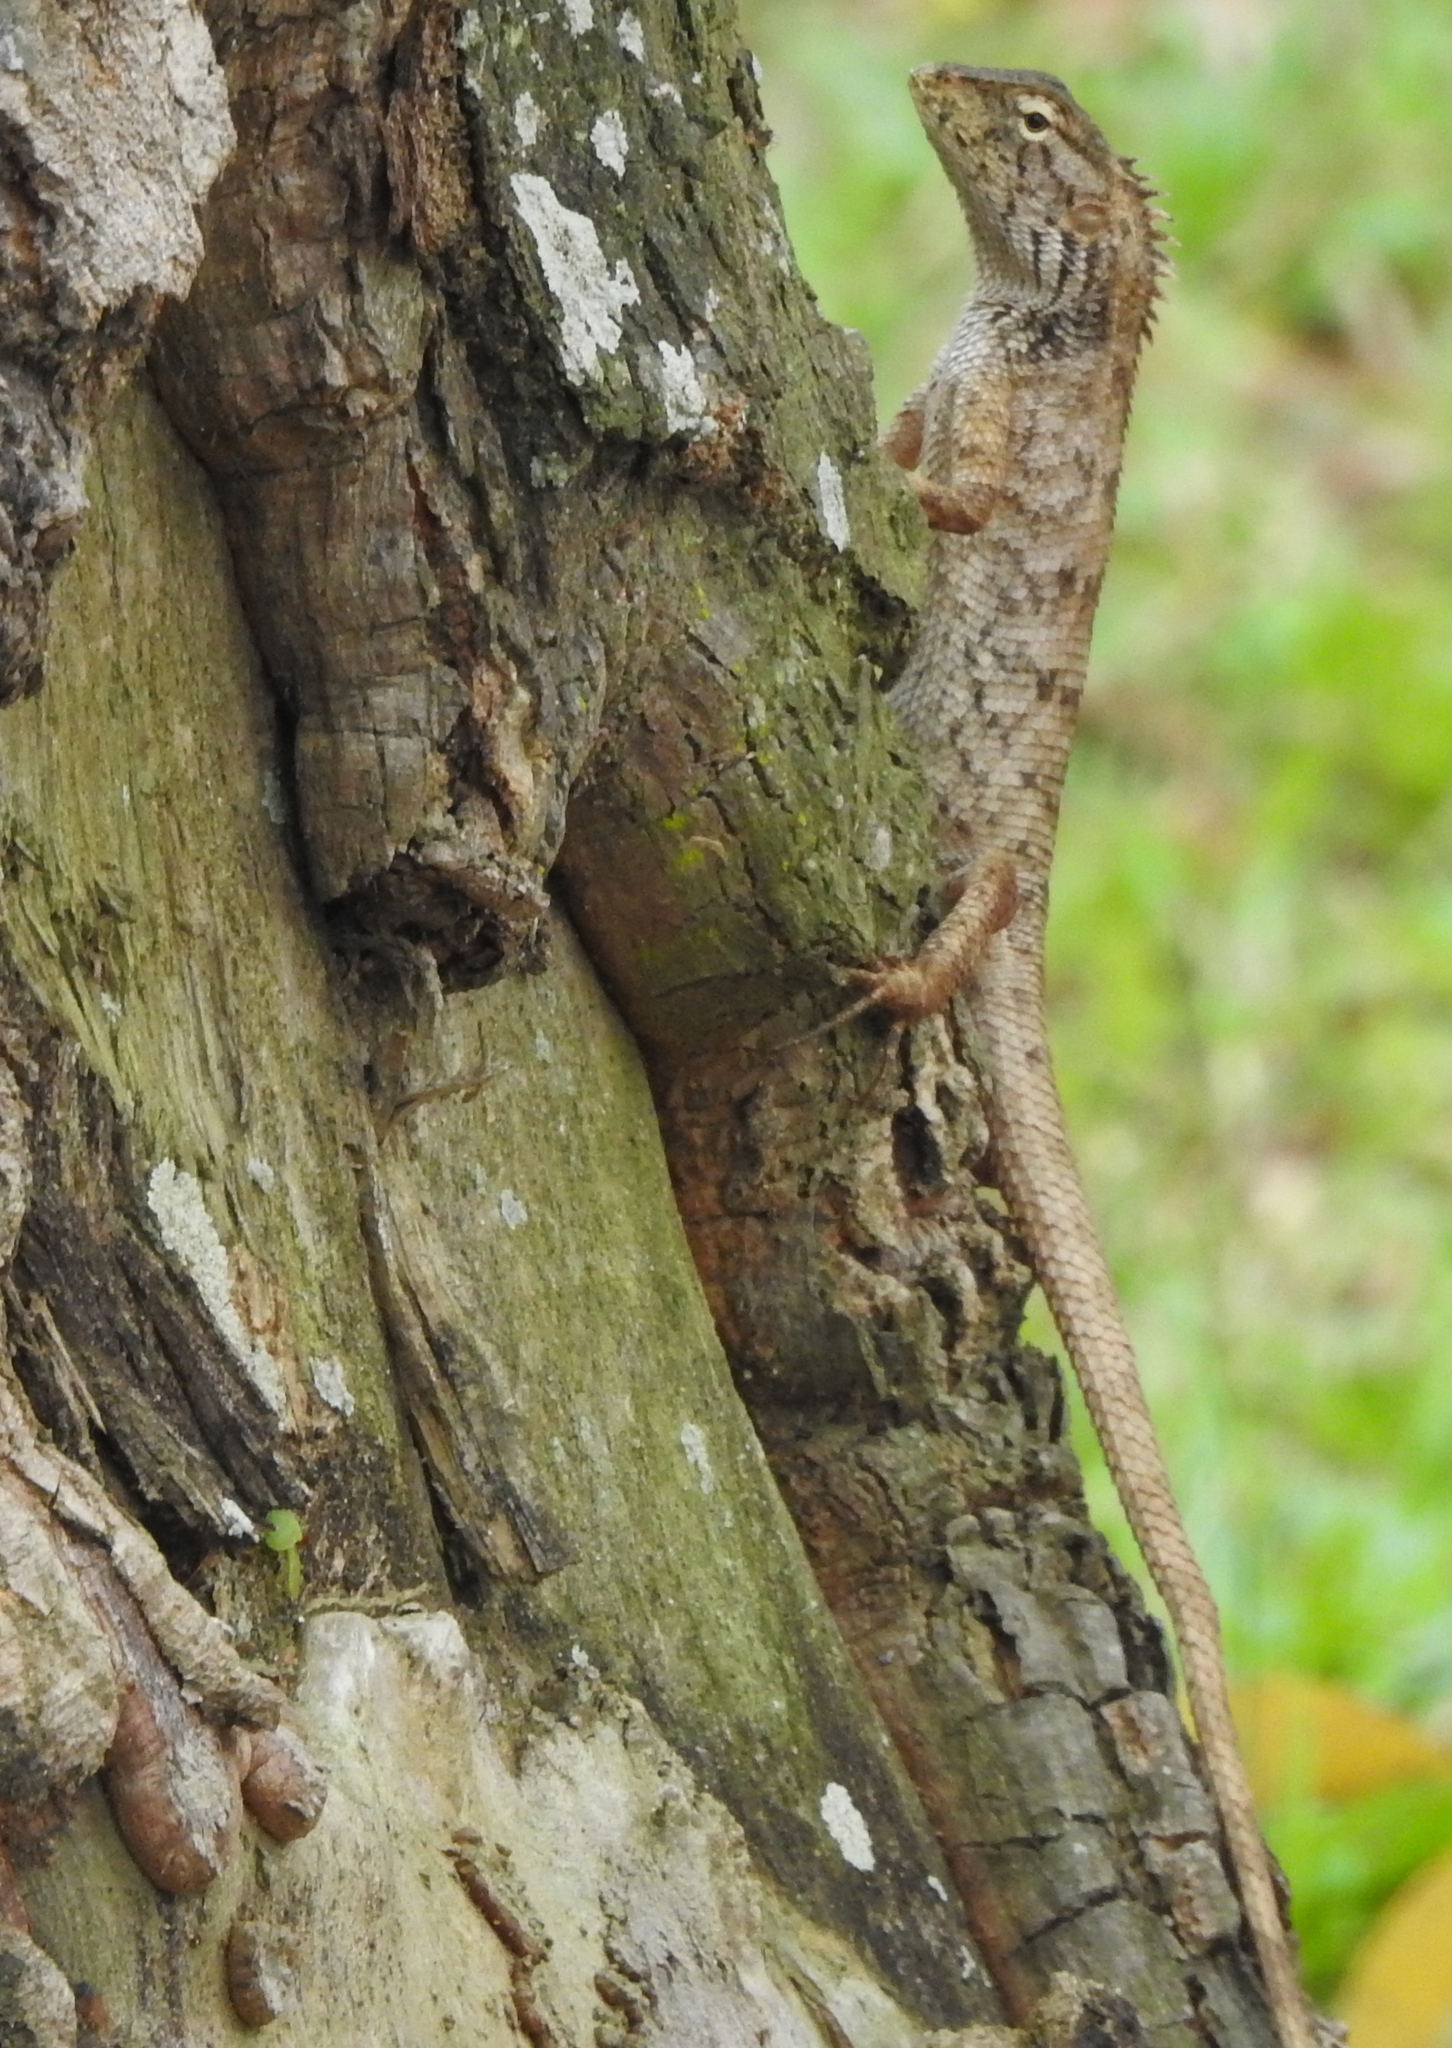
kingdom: Animalia
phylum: Chordata
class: Squamata
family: Agamidae
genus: Calotes
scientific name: Calotes versicolor
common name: Oriental garden lizard
